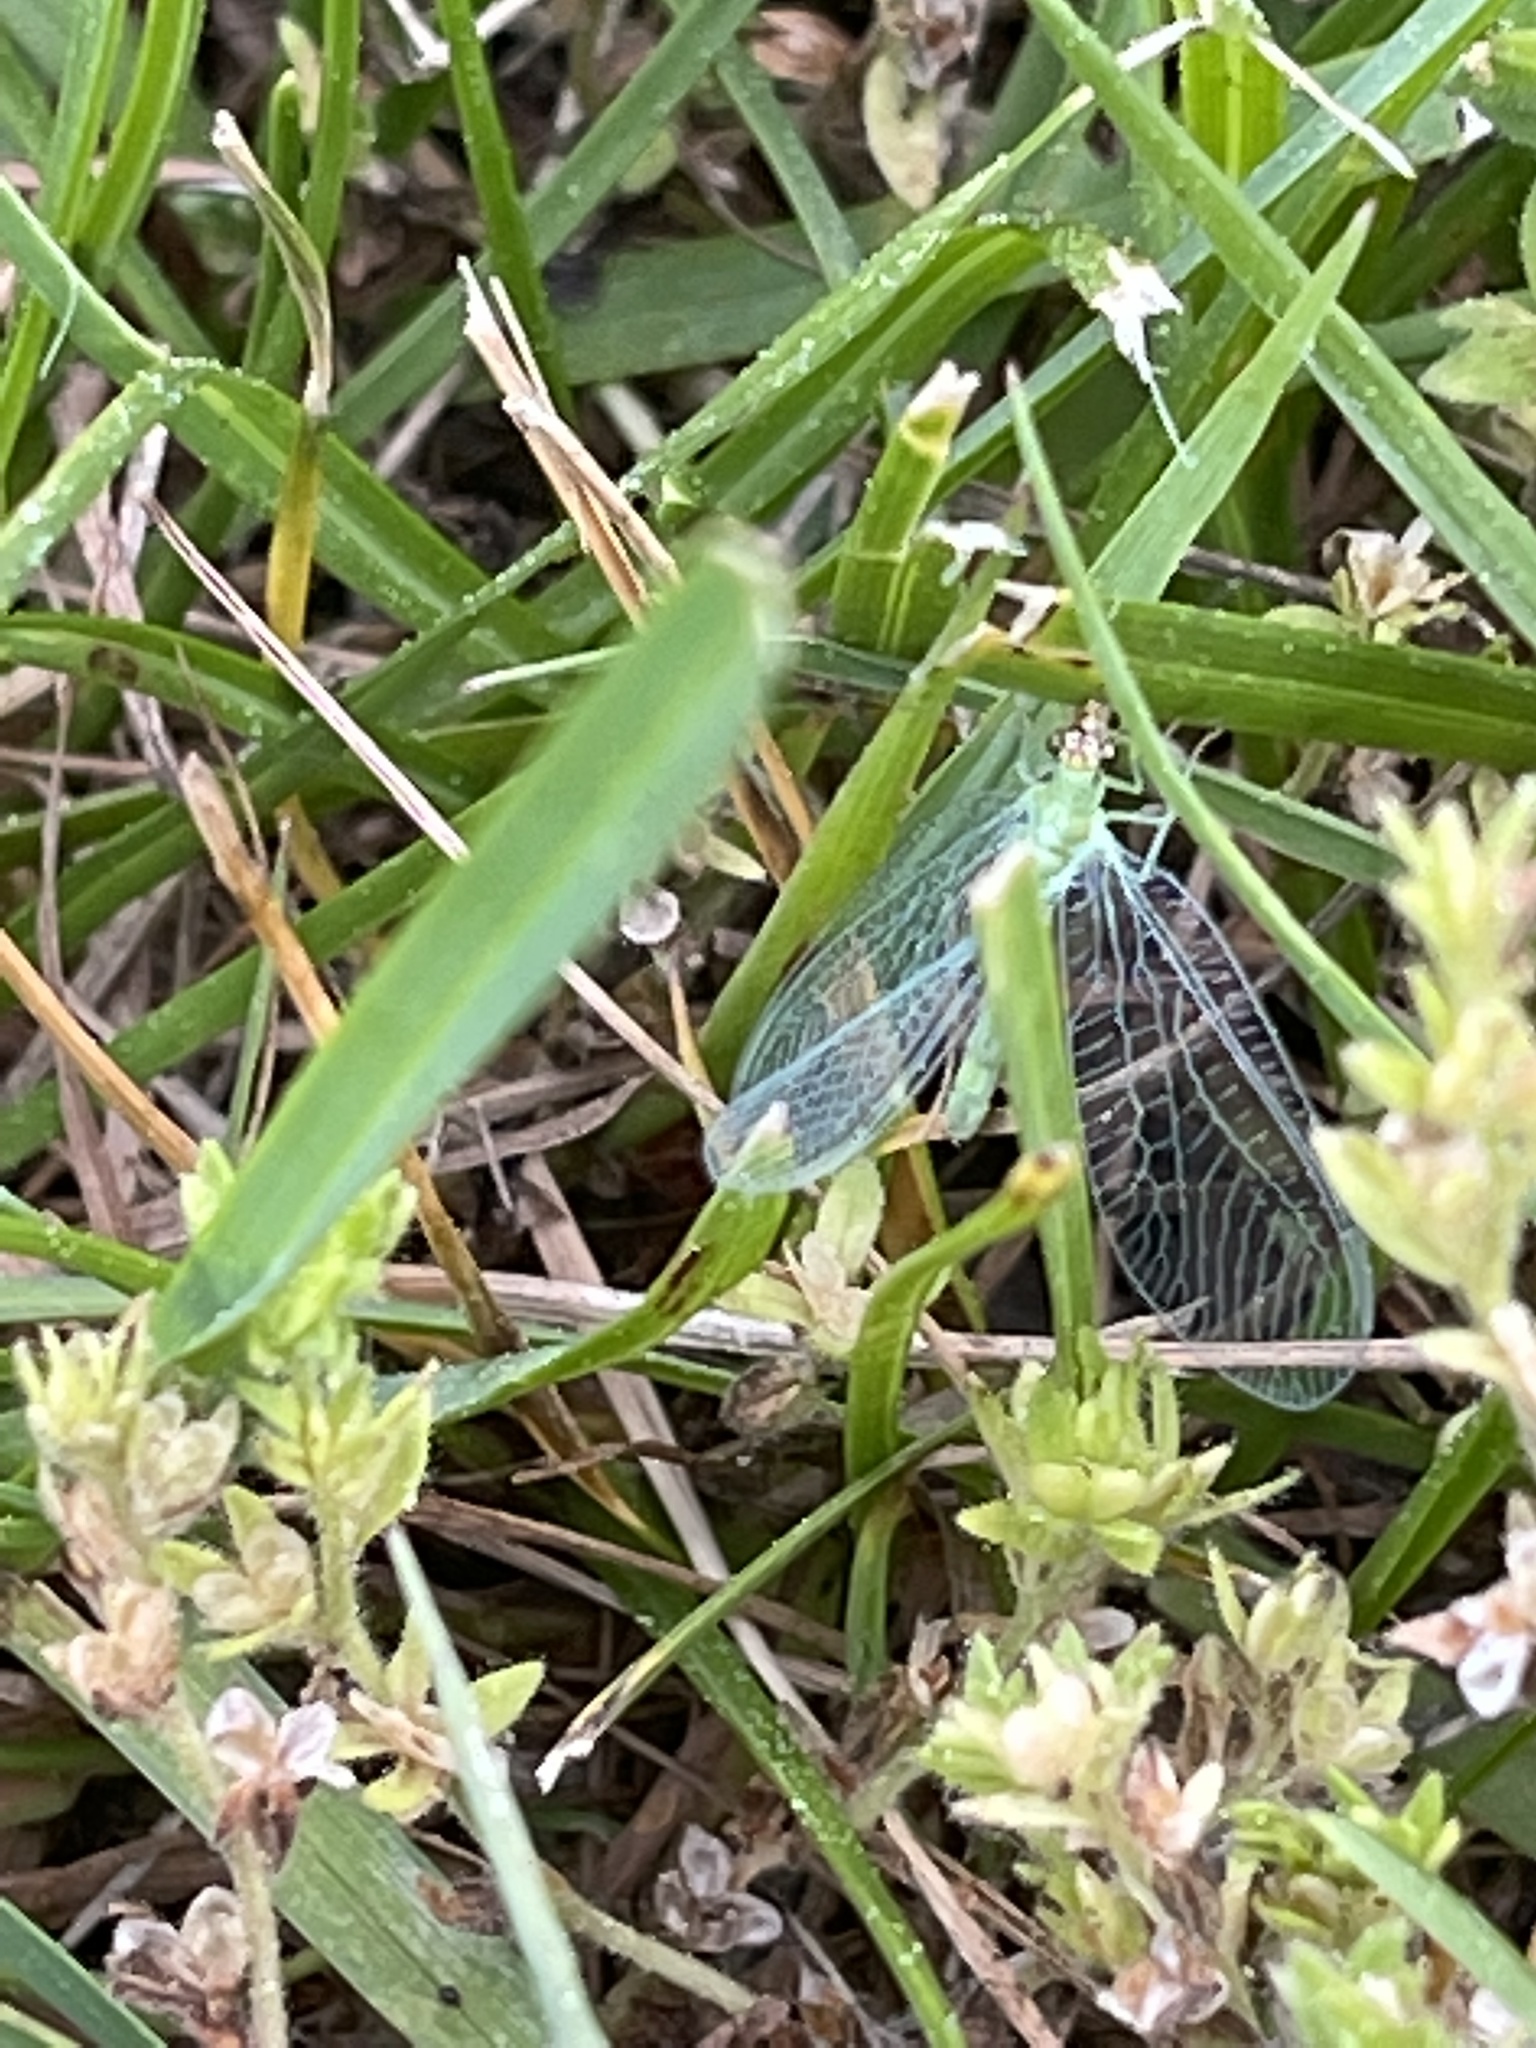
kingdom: Animalia
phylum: Arthropoda
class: Insecta
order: Neuroptera
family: Chrysopidae
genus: Chrysopa
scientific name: Chrysopa oculata
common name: Golden-eyed lacewing
